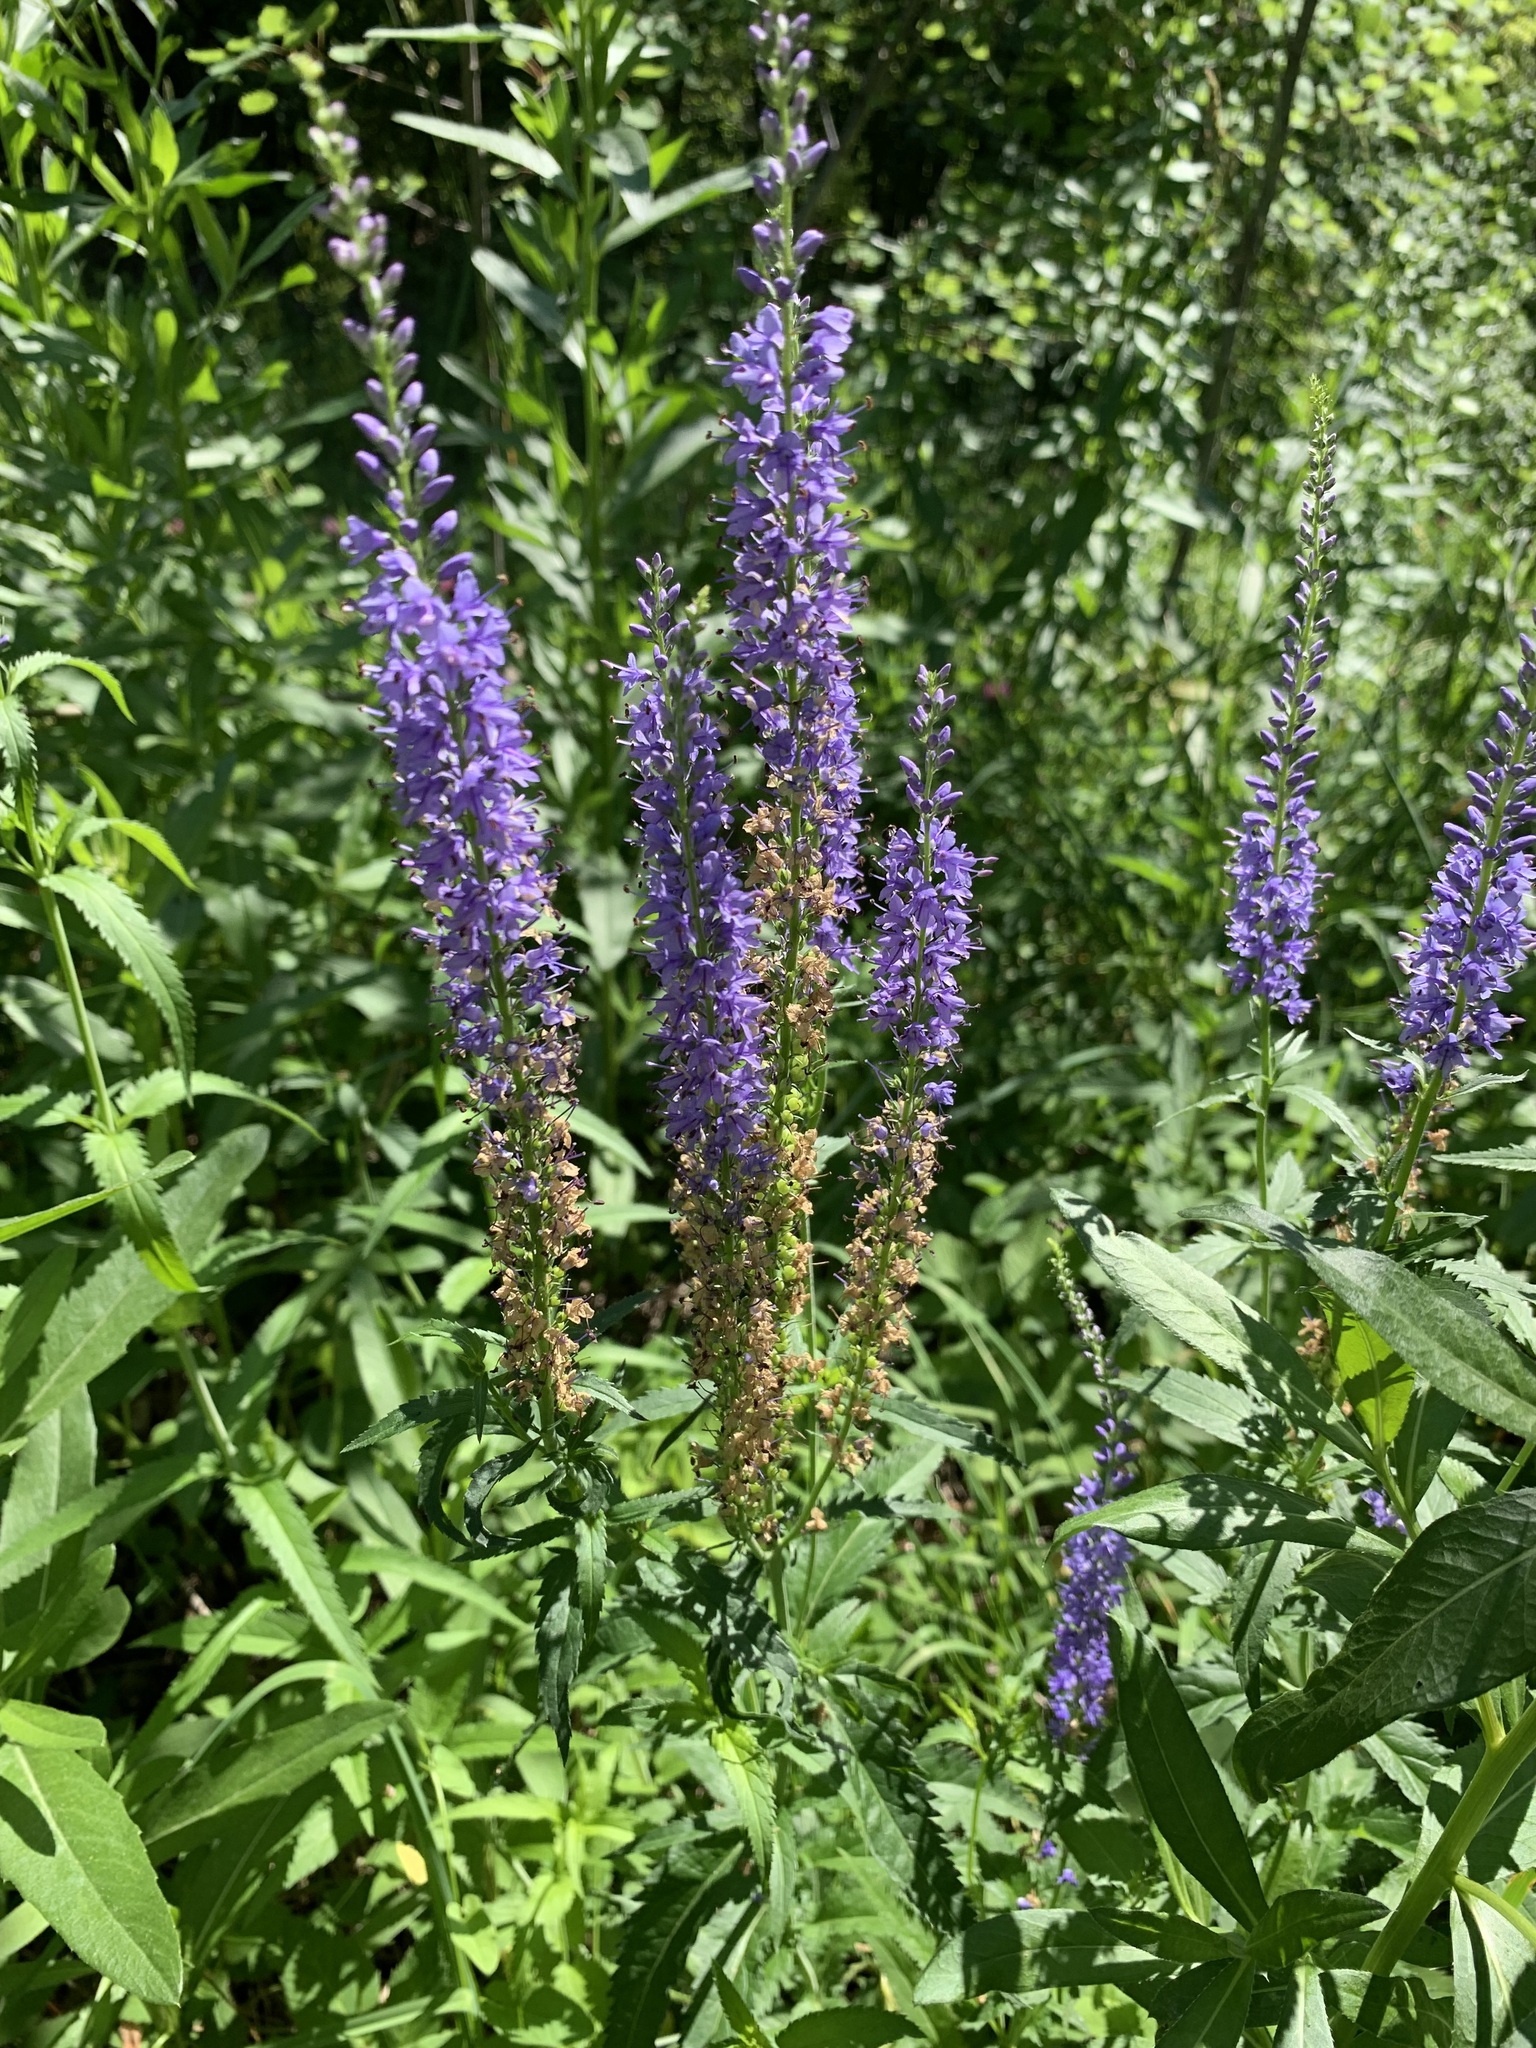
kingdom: Plantae
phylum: Tracheophyta
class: Magnoliopsida
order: Lamiales
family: Plantaginaceae
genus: Veronica
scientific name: Veronica longifolia
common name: Garden speedwell
